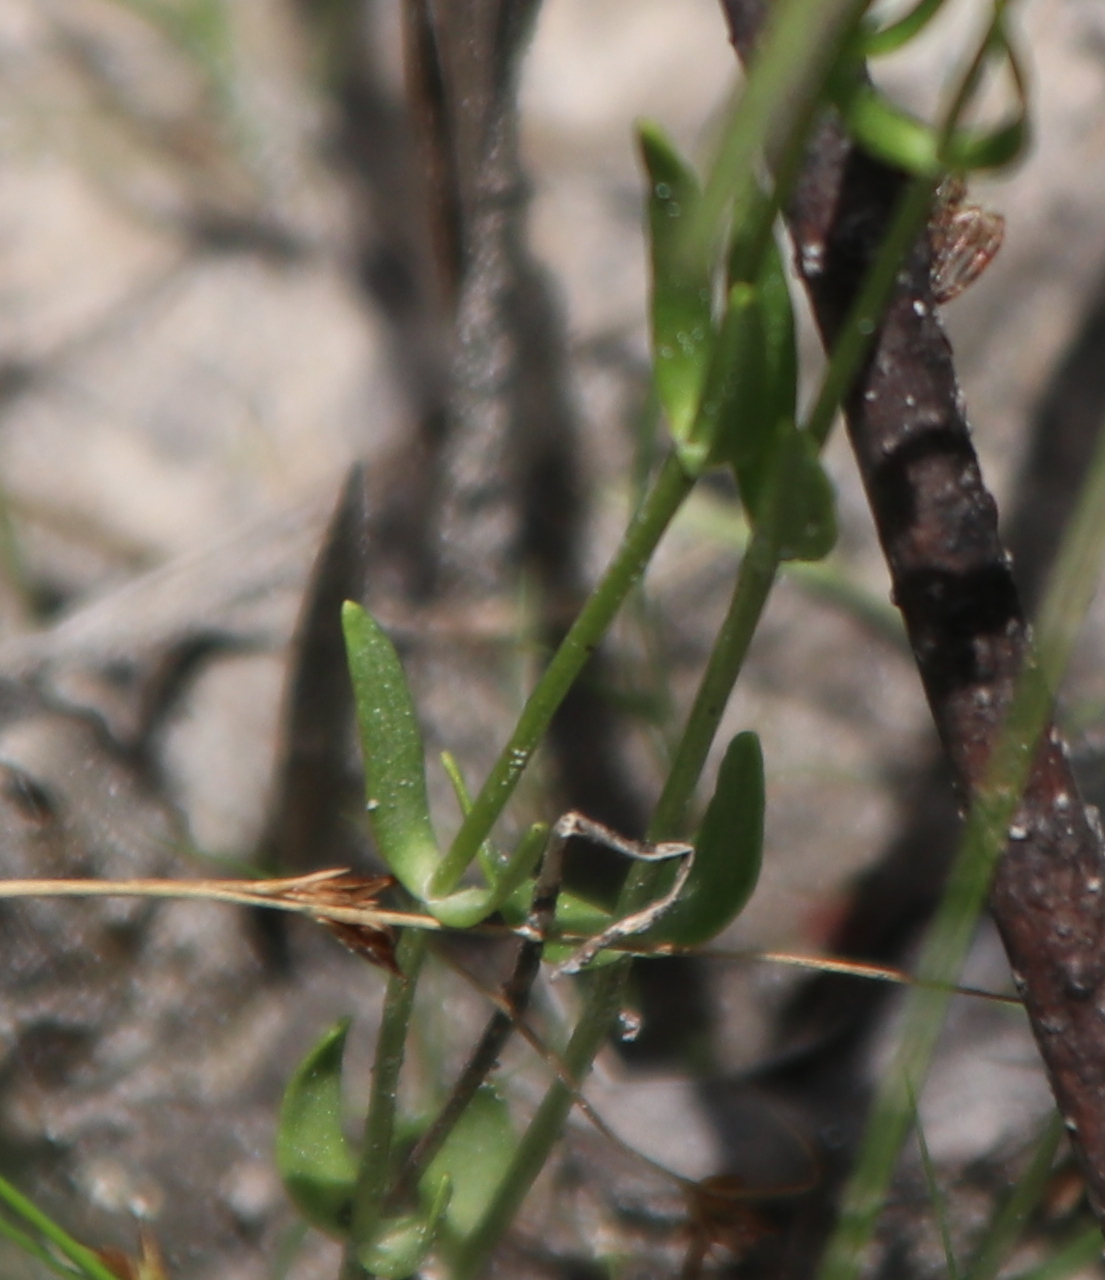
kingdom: Plantae
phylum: Tracheophyta
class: Magnoliopsida
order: Gentianales
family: Gentianaceae
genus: Sabatia
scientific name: Sabatia campanulata
